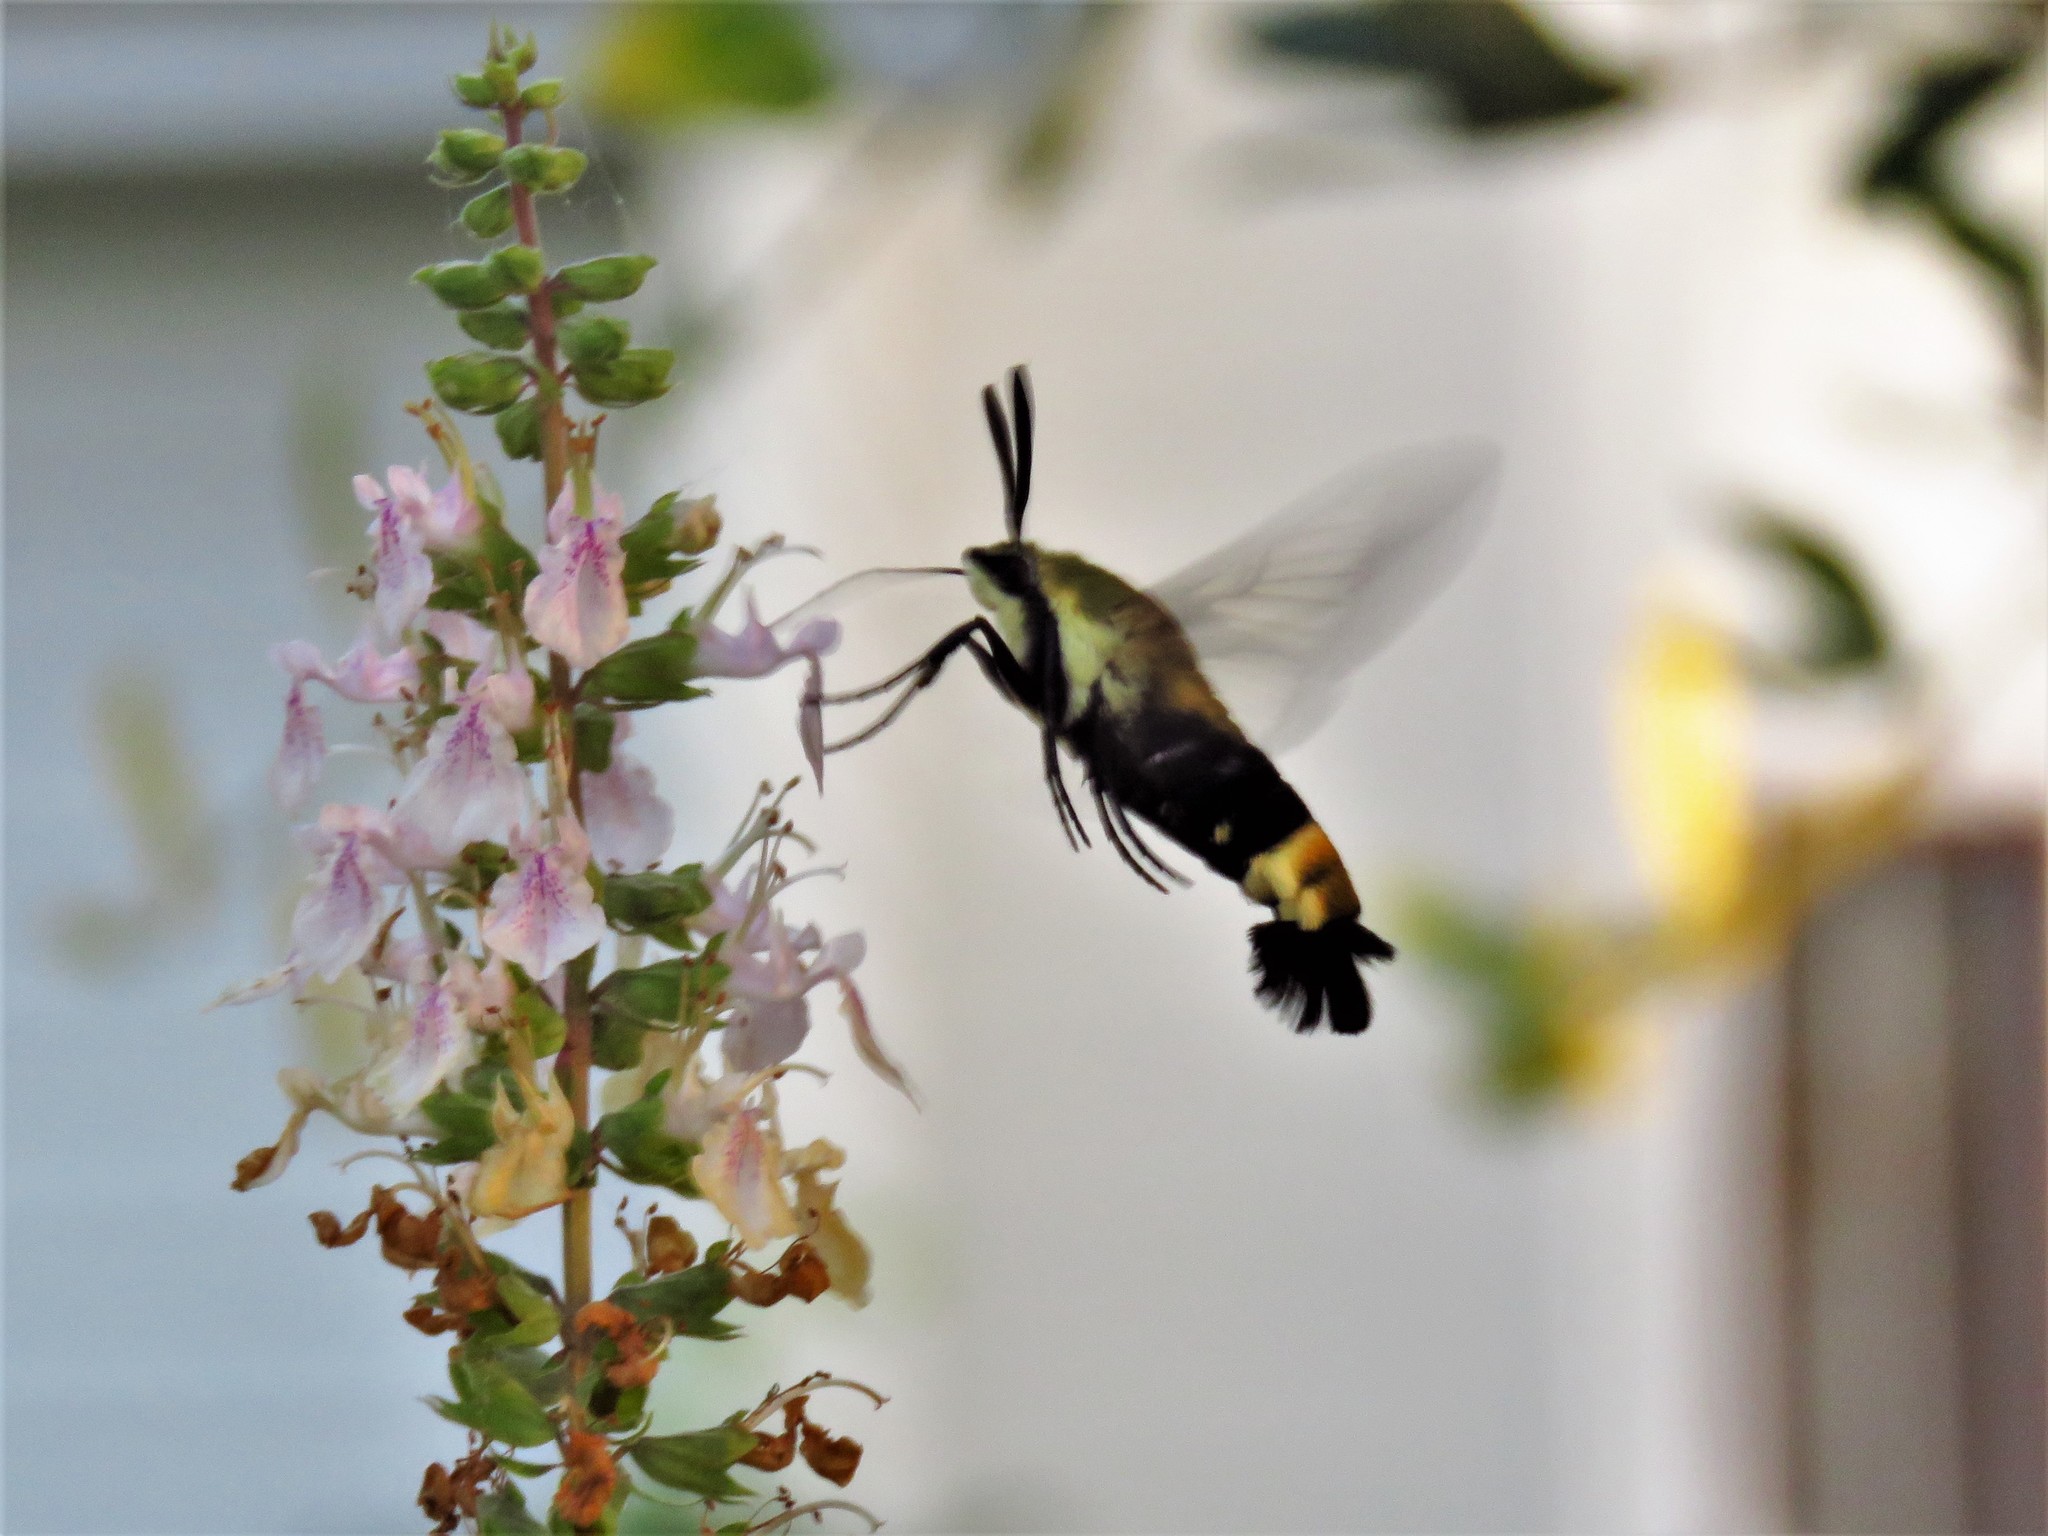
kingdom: Animalia
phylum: Arthropoda
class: Insecta
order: Lepidoptera
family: Sphingidae
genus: Hemaris
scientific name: Hemaris diffinis
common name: Bumblebee moth
